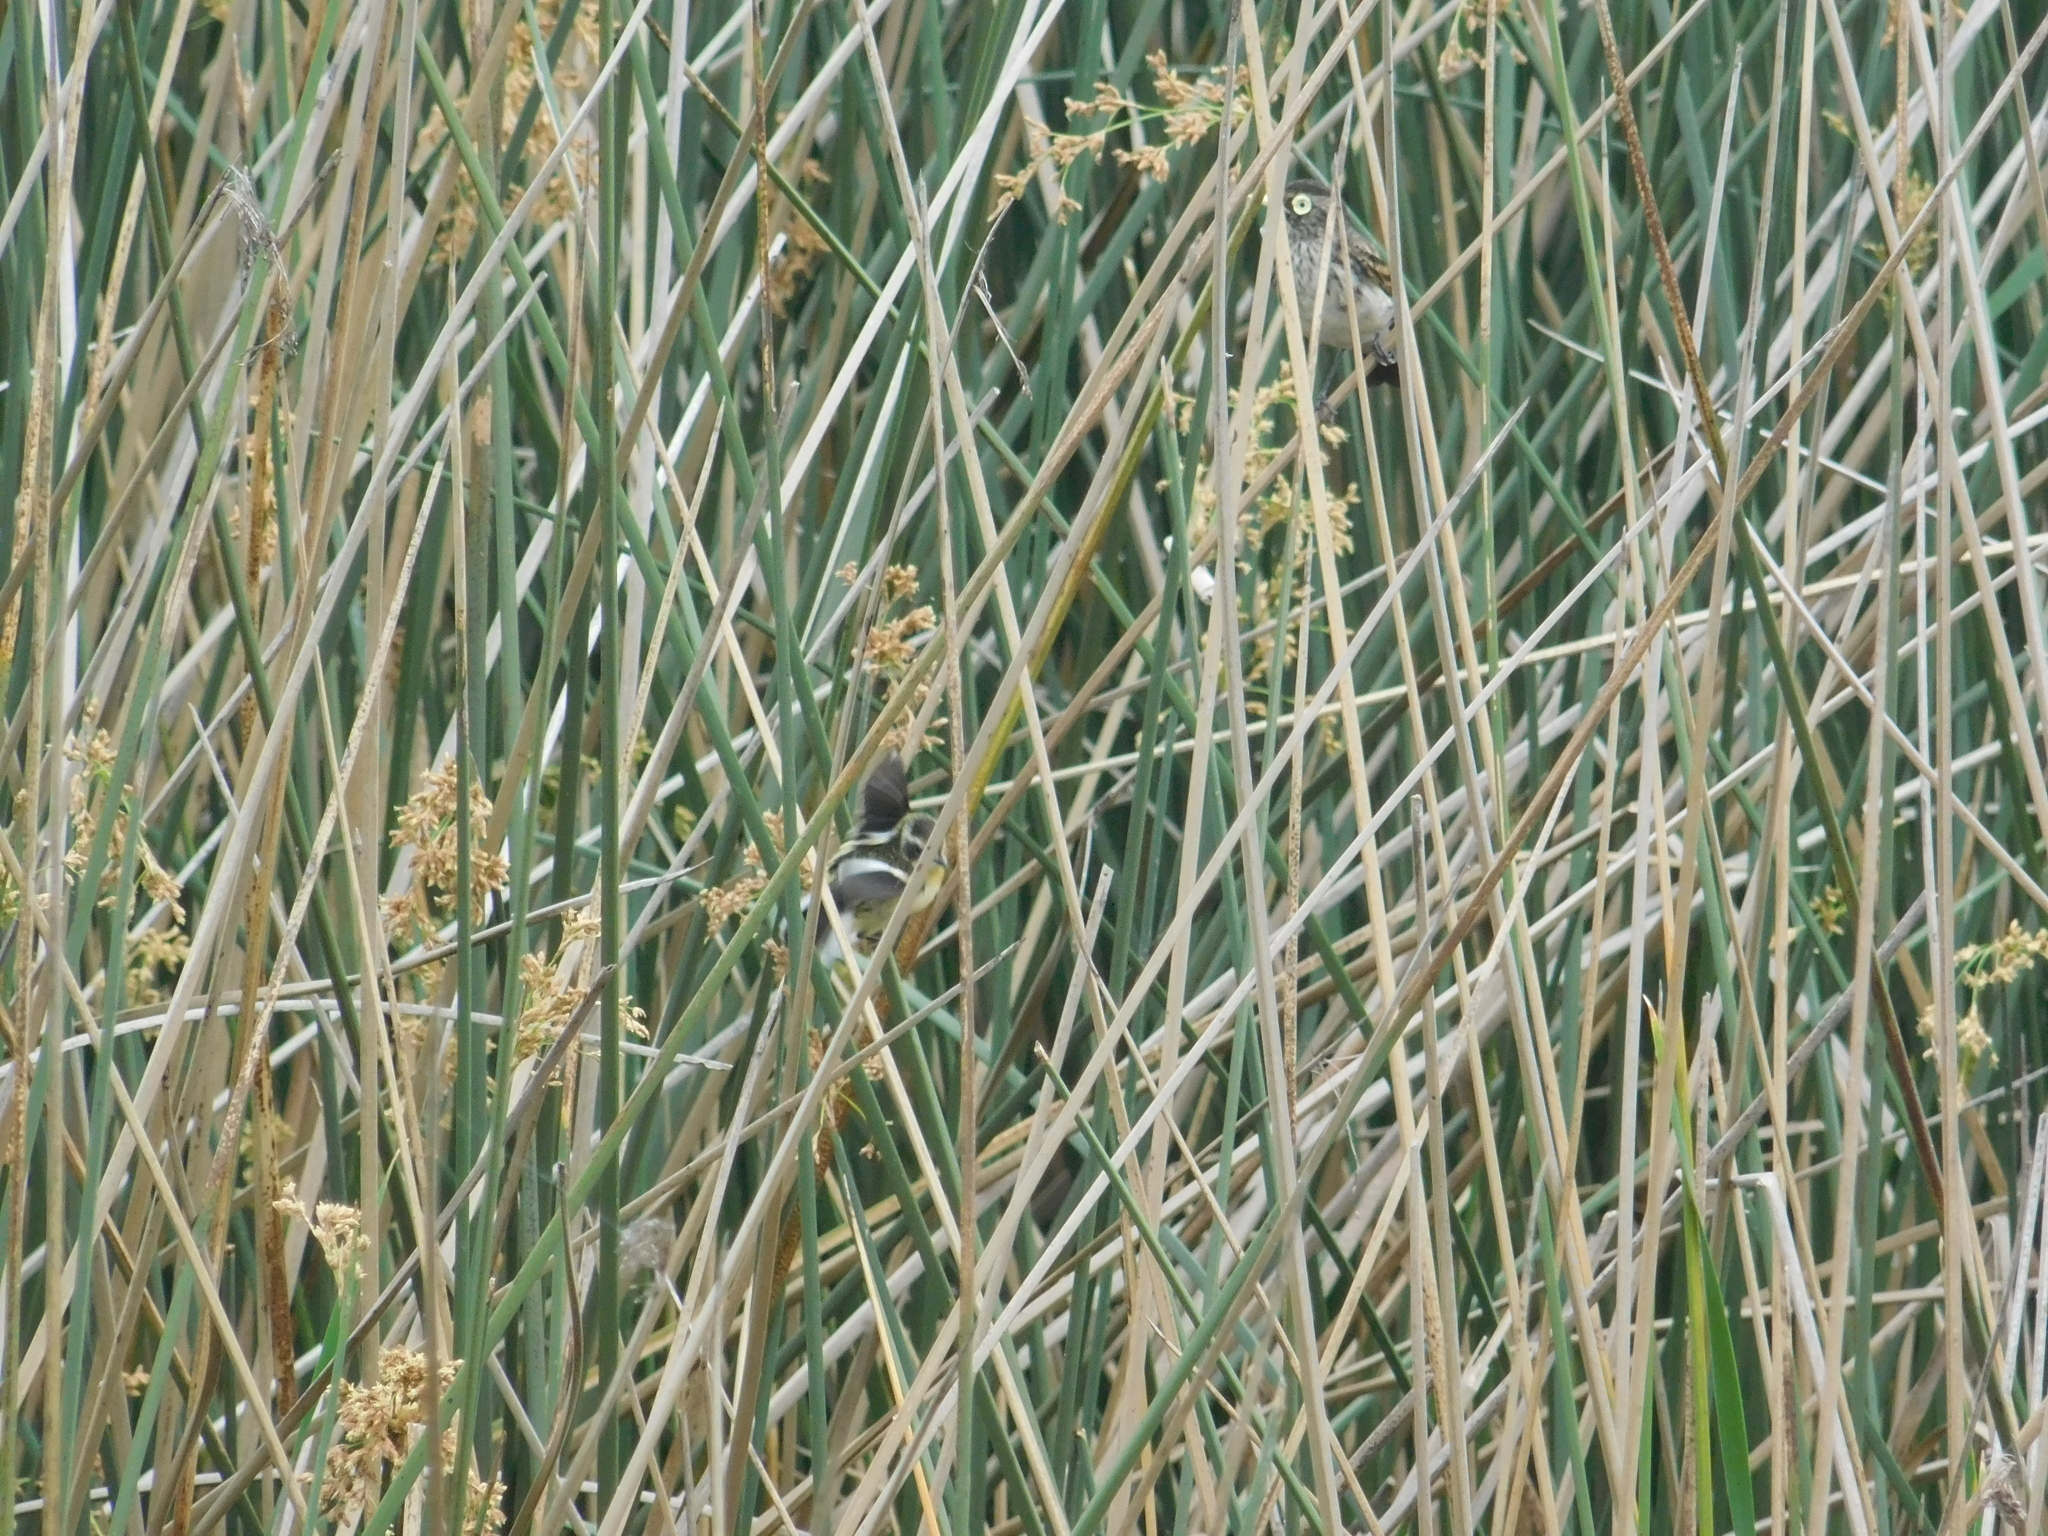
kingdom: Animalia
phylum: Chordata
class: Aves
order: Passeriformes
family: Tyrannidae
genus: Tachuris
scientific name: Tachuris rubrigastra
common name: Many-colored rush tyrant
